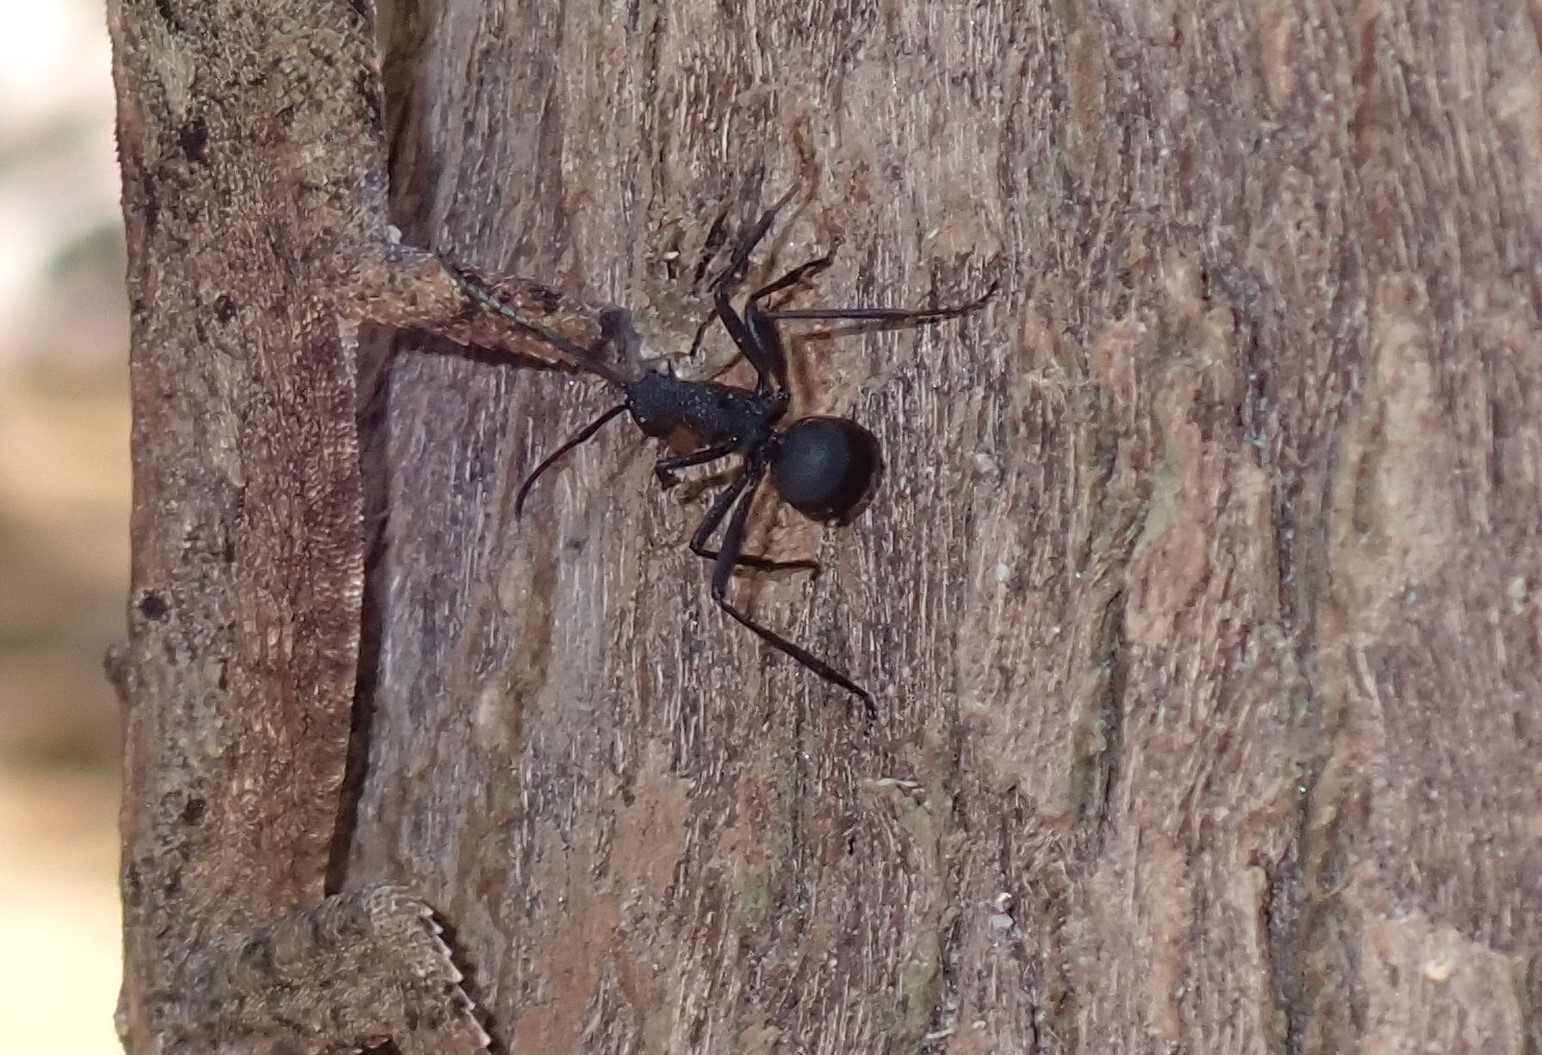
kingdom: Animalia
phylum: Arthropoda
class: Insecta
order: Hymenoptera
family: Formicidae
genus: Polyrhachis
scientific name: Polyrhachis armata
